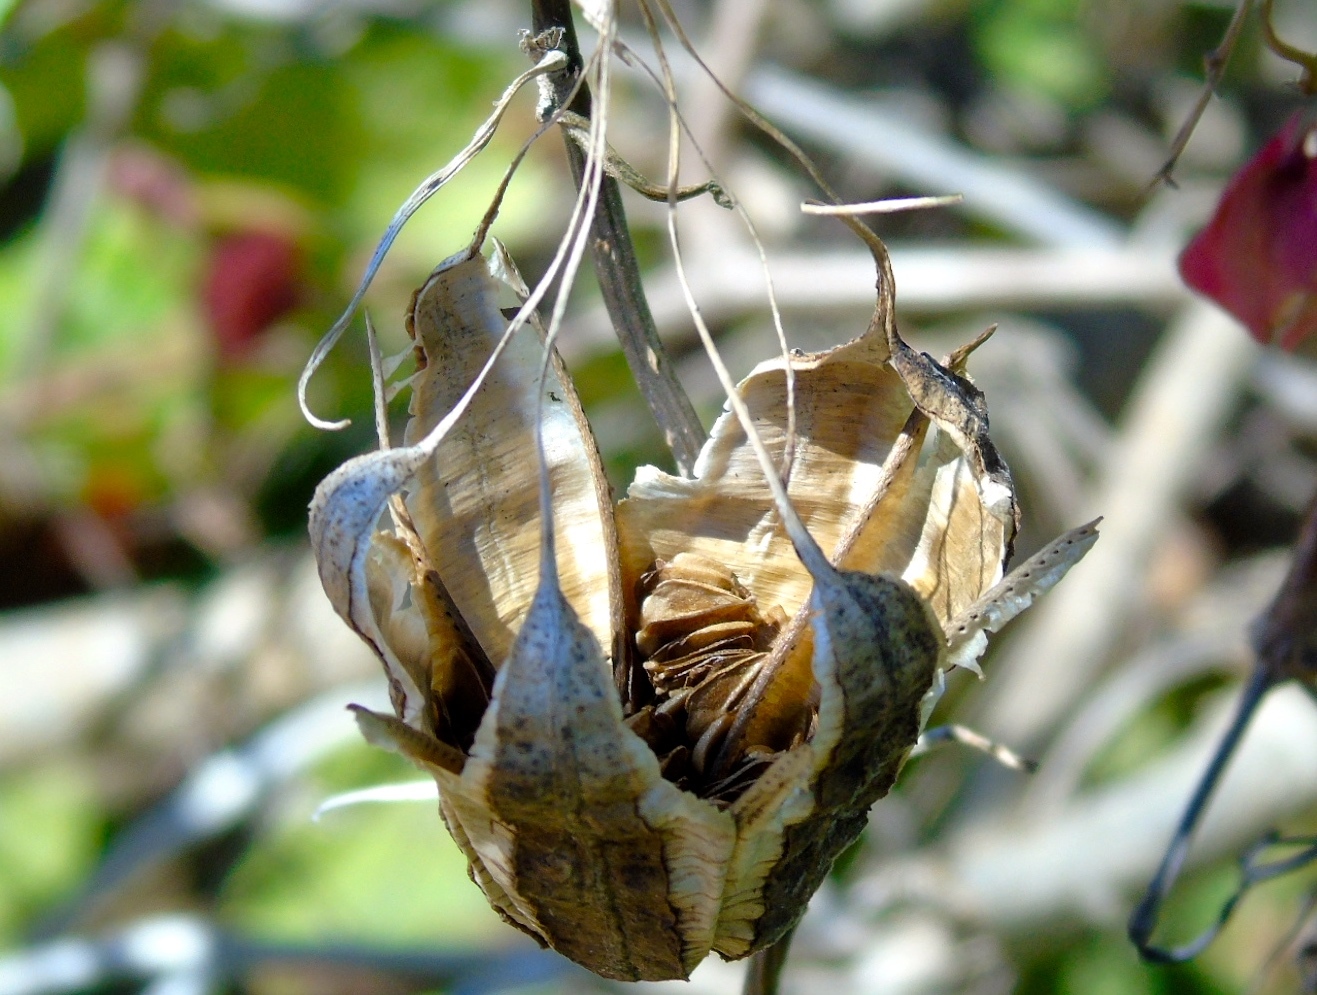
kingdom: Plantae
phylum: Tracheophyta
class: Magnoliopsida
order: Piperales
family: Aristolochiaceae
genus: Aristolochia
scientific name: Aristolochia taliscana
